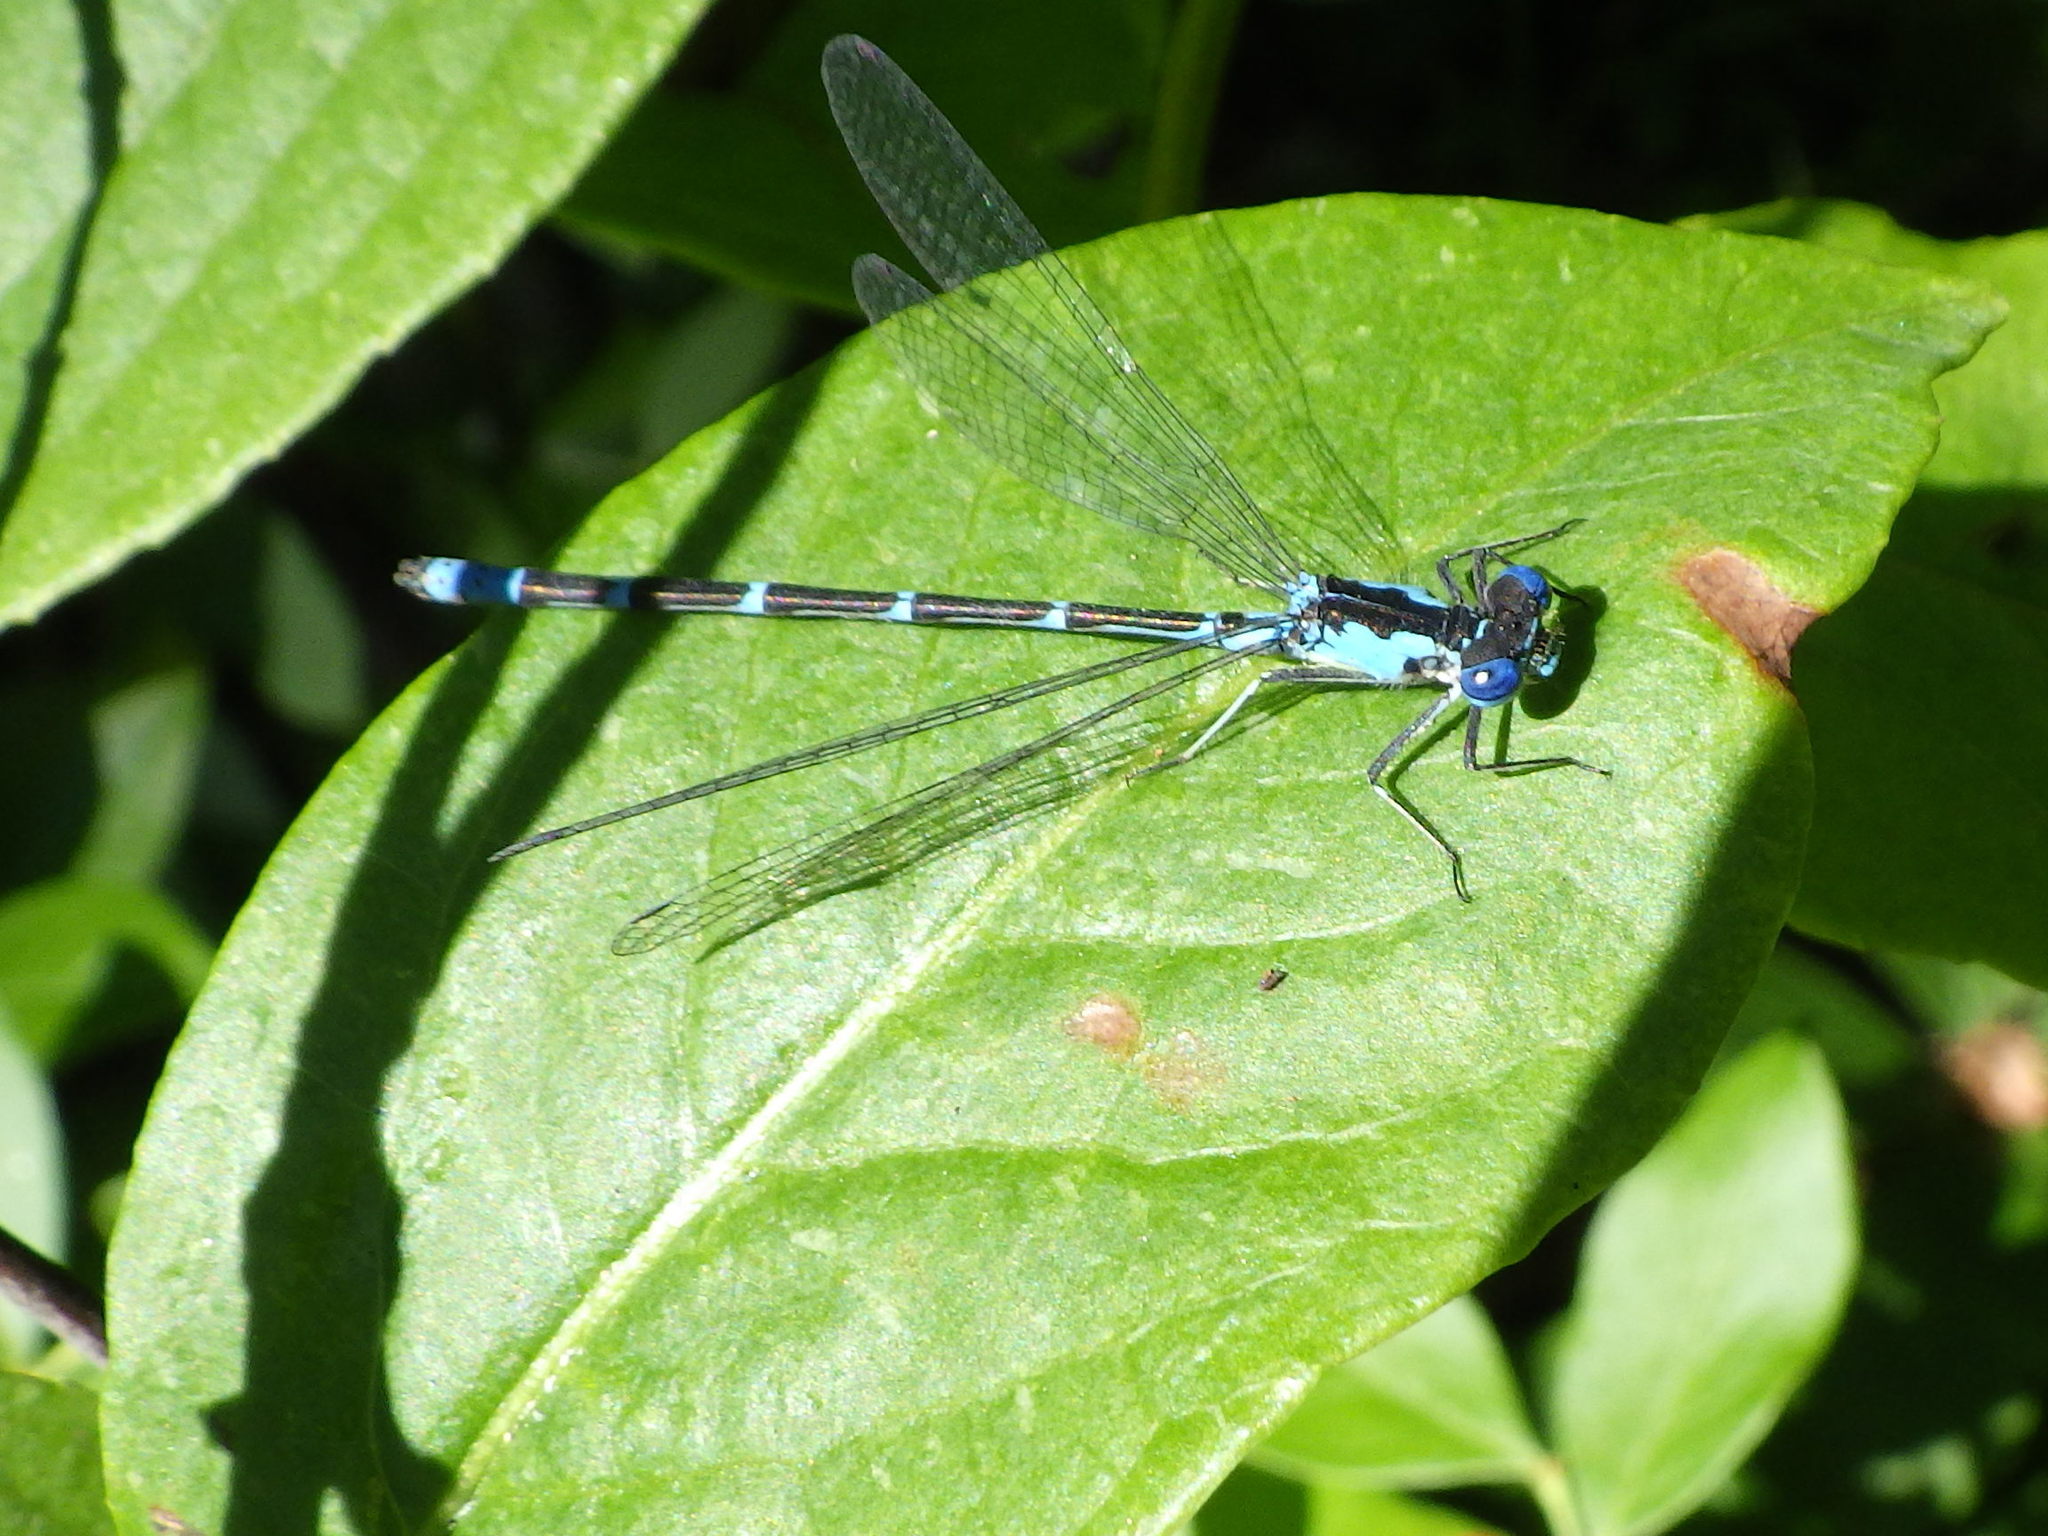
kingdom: Animalia
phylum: Arthropoda
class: Insecta
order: Odonata
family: Coenagrionidae
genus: Chromagrion
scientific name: Chromagrion conditum
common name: Aurora damsel
